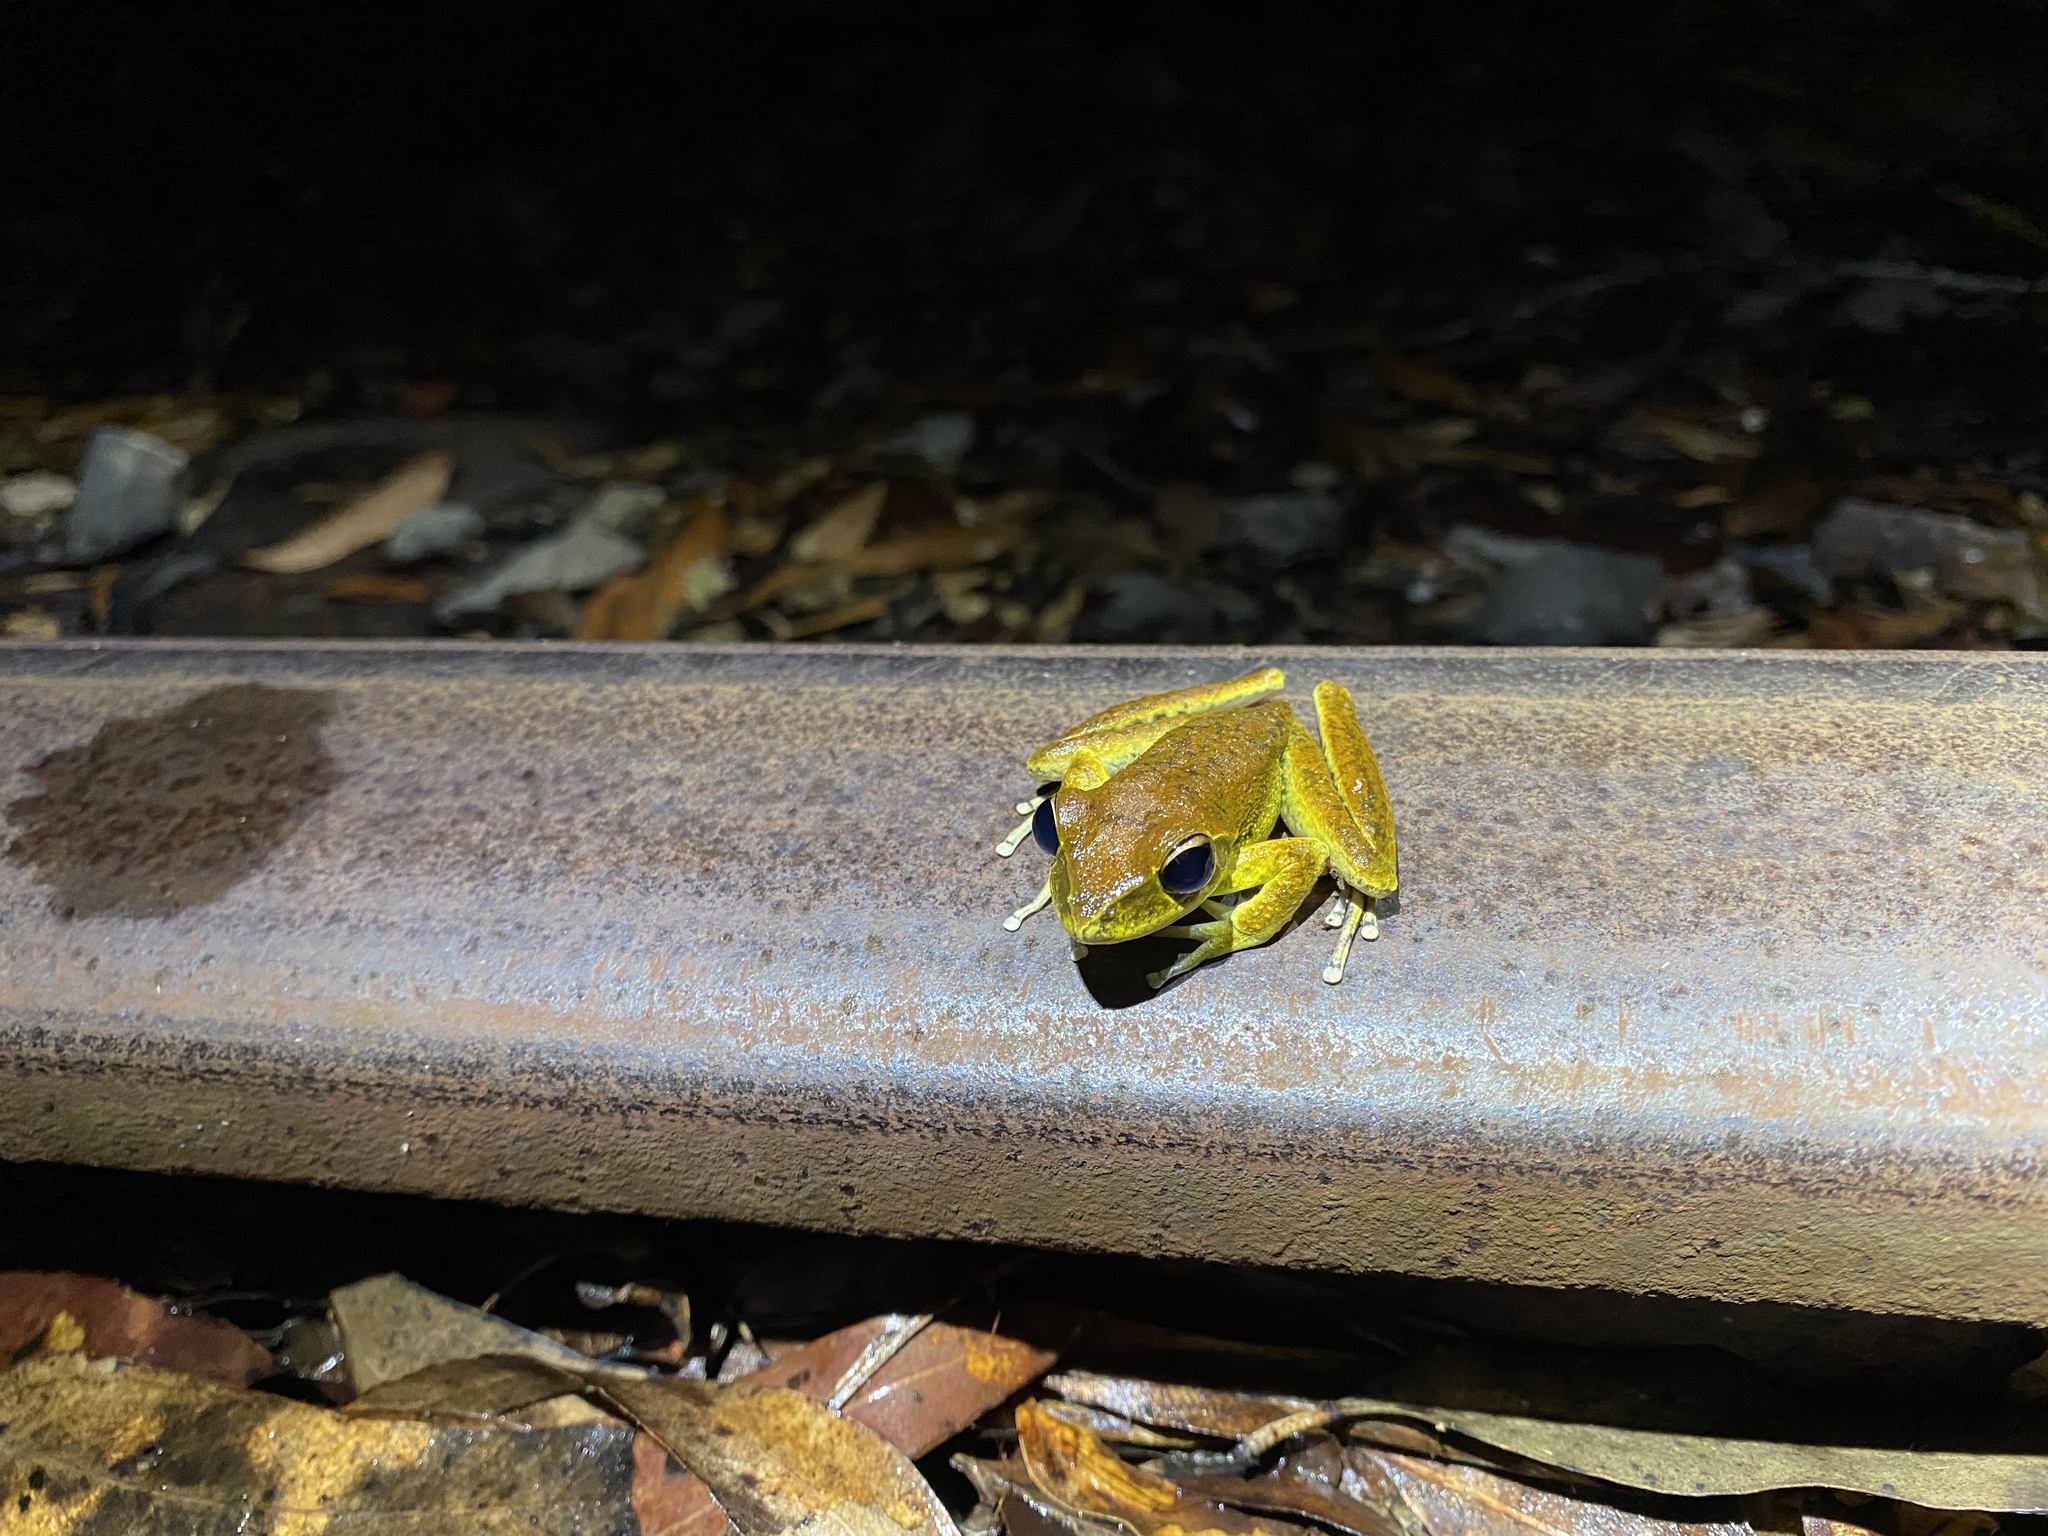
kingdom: Animalia
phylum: Chordata
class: Amphibia
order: Anura
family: Hylidae
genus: Ranoidea
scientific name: Ranoidea
